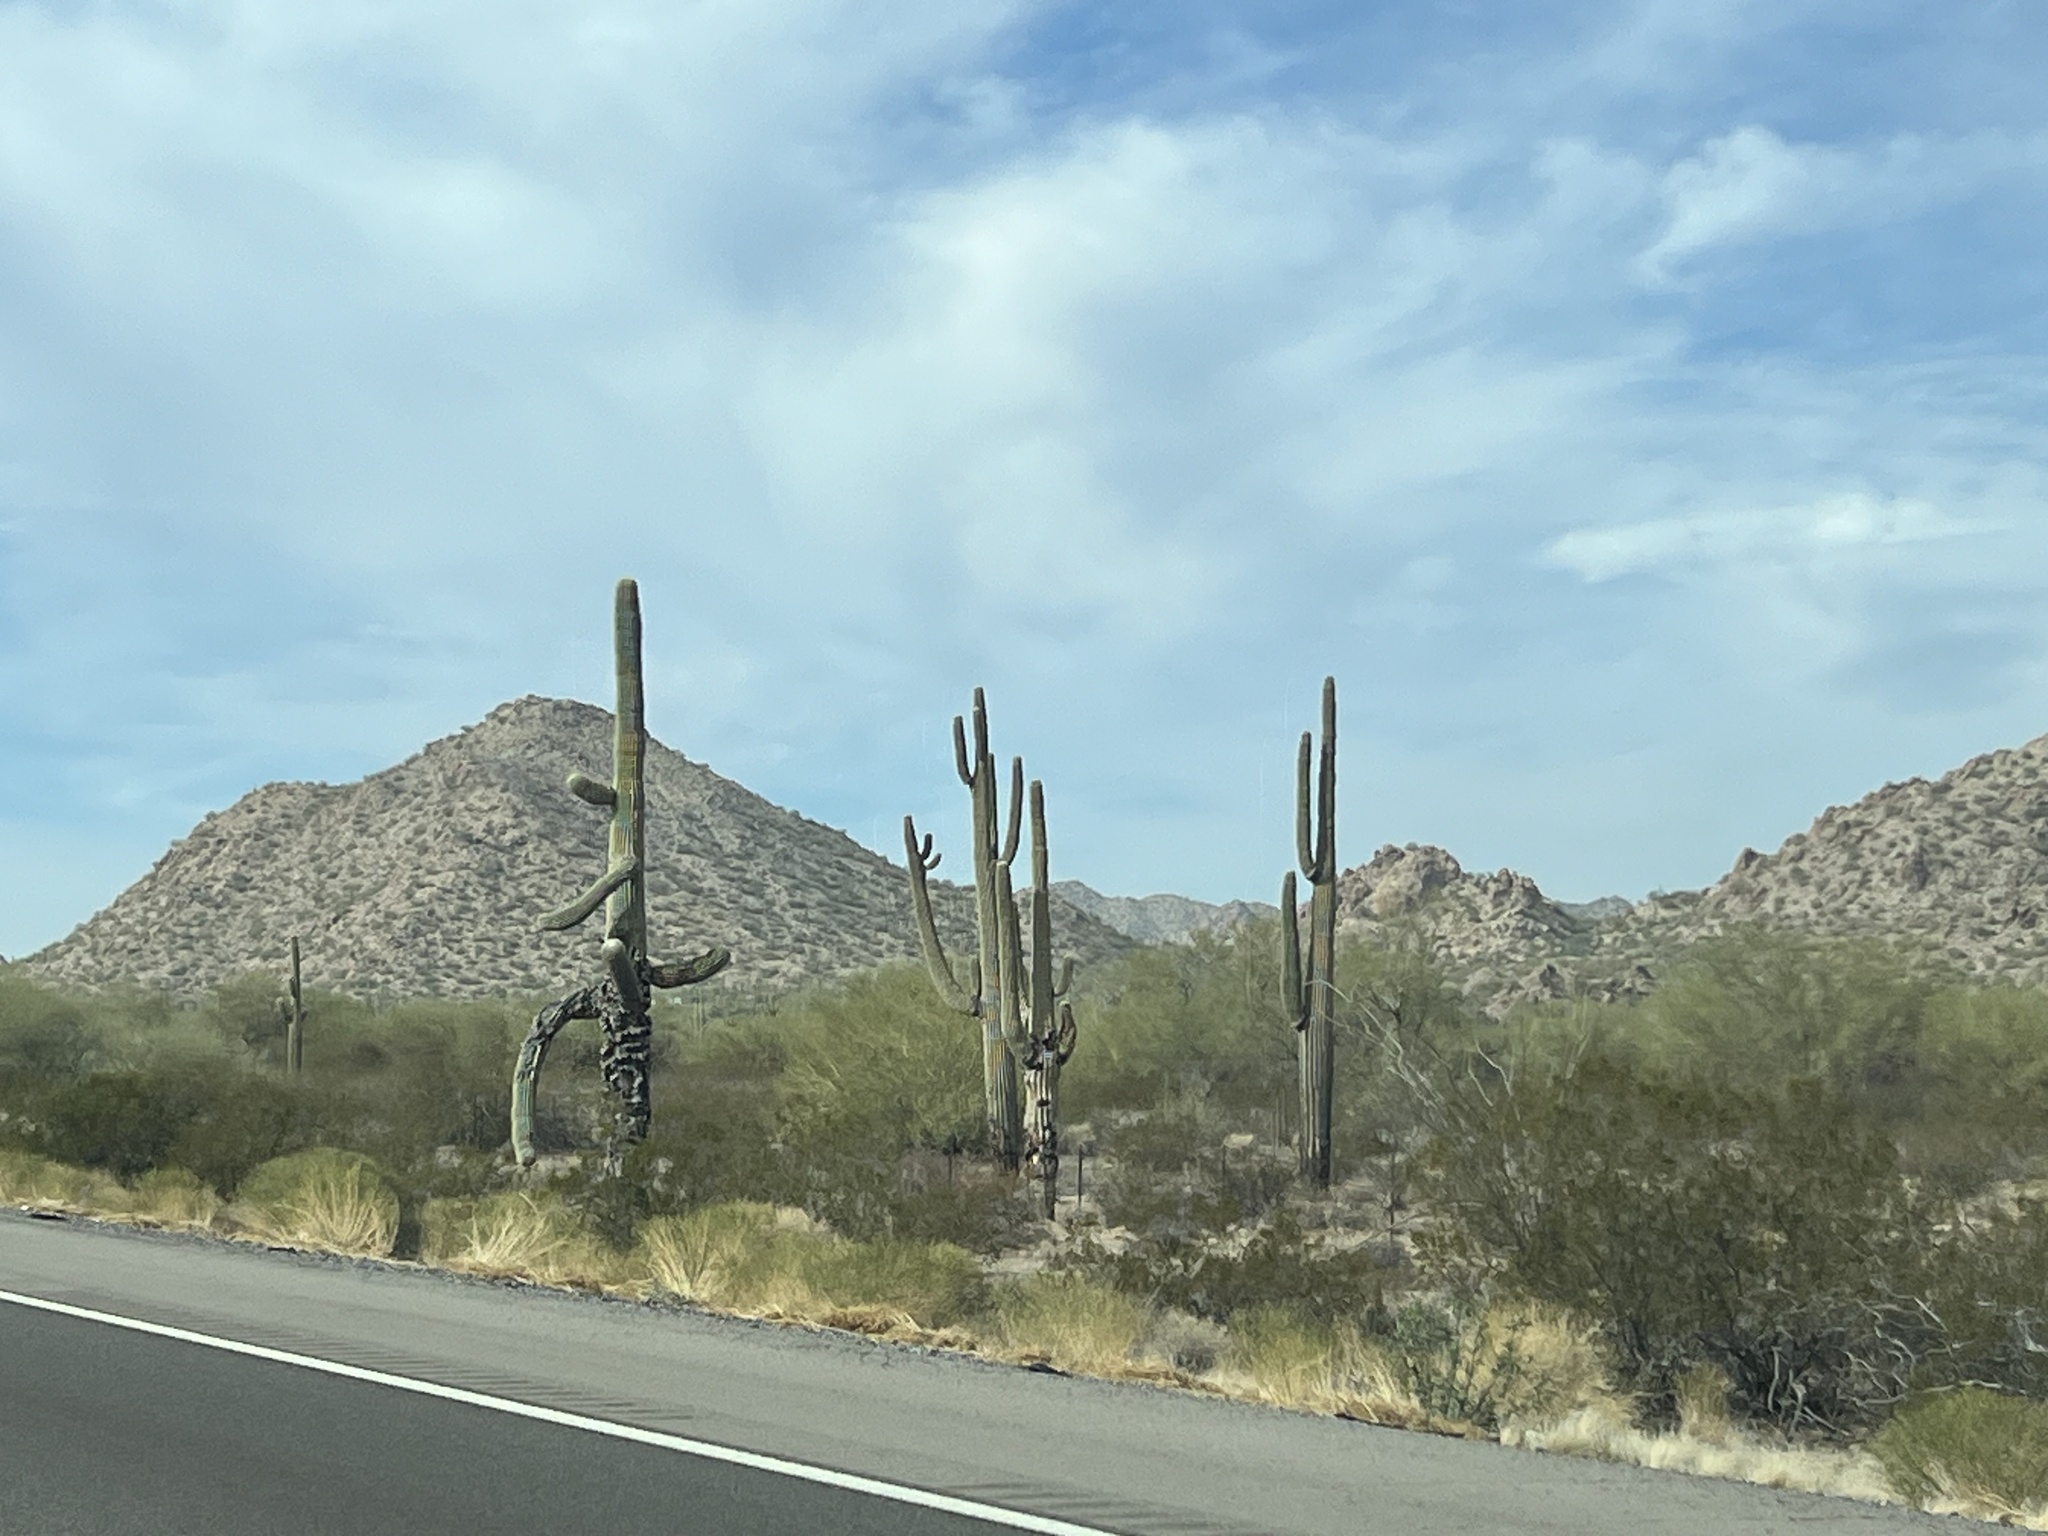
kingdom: Plantae
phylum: Tracheophyta
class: Magnoliopsida
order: Caryophyllales
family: Cactaceae
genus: Carnegiea
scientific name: Carnegiea gigantea
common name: Saguaro
